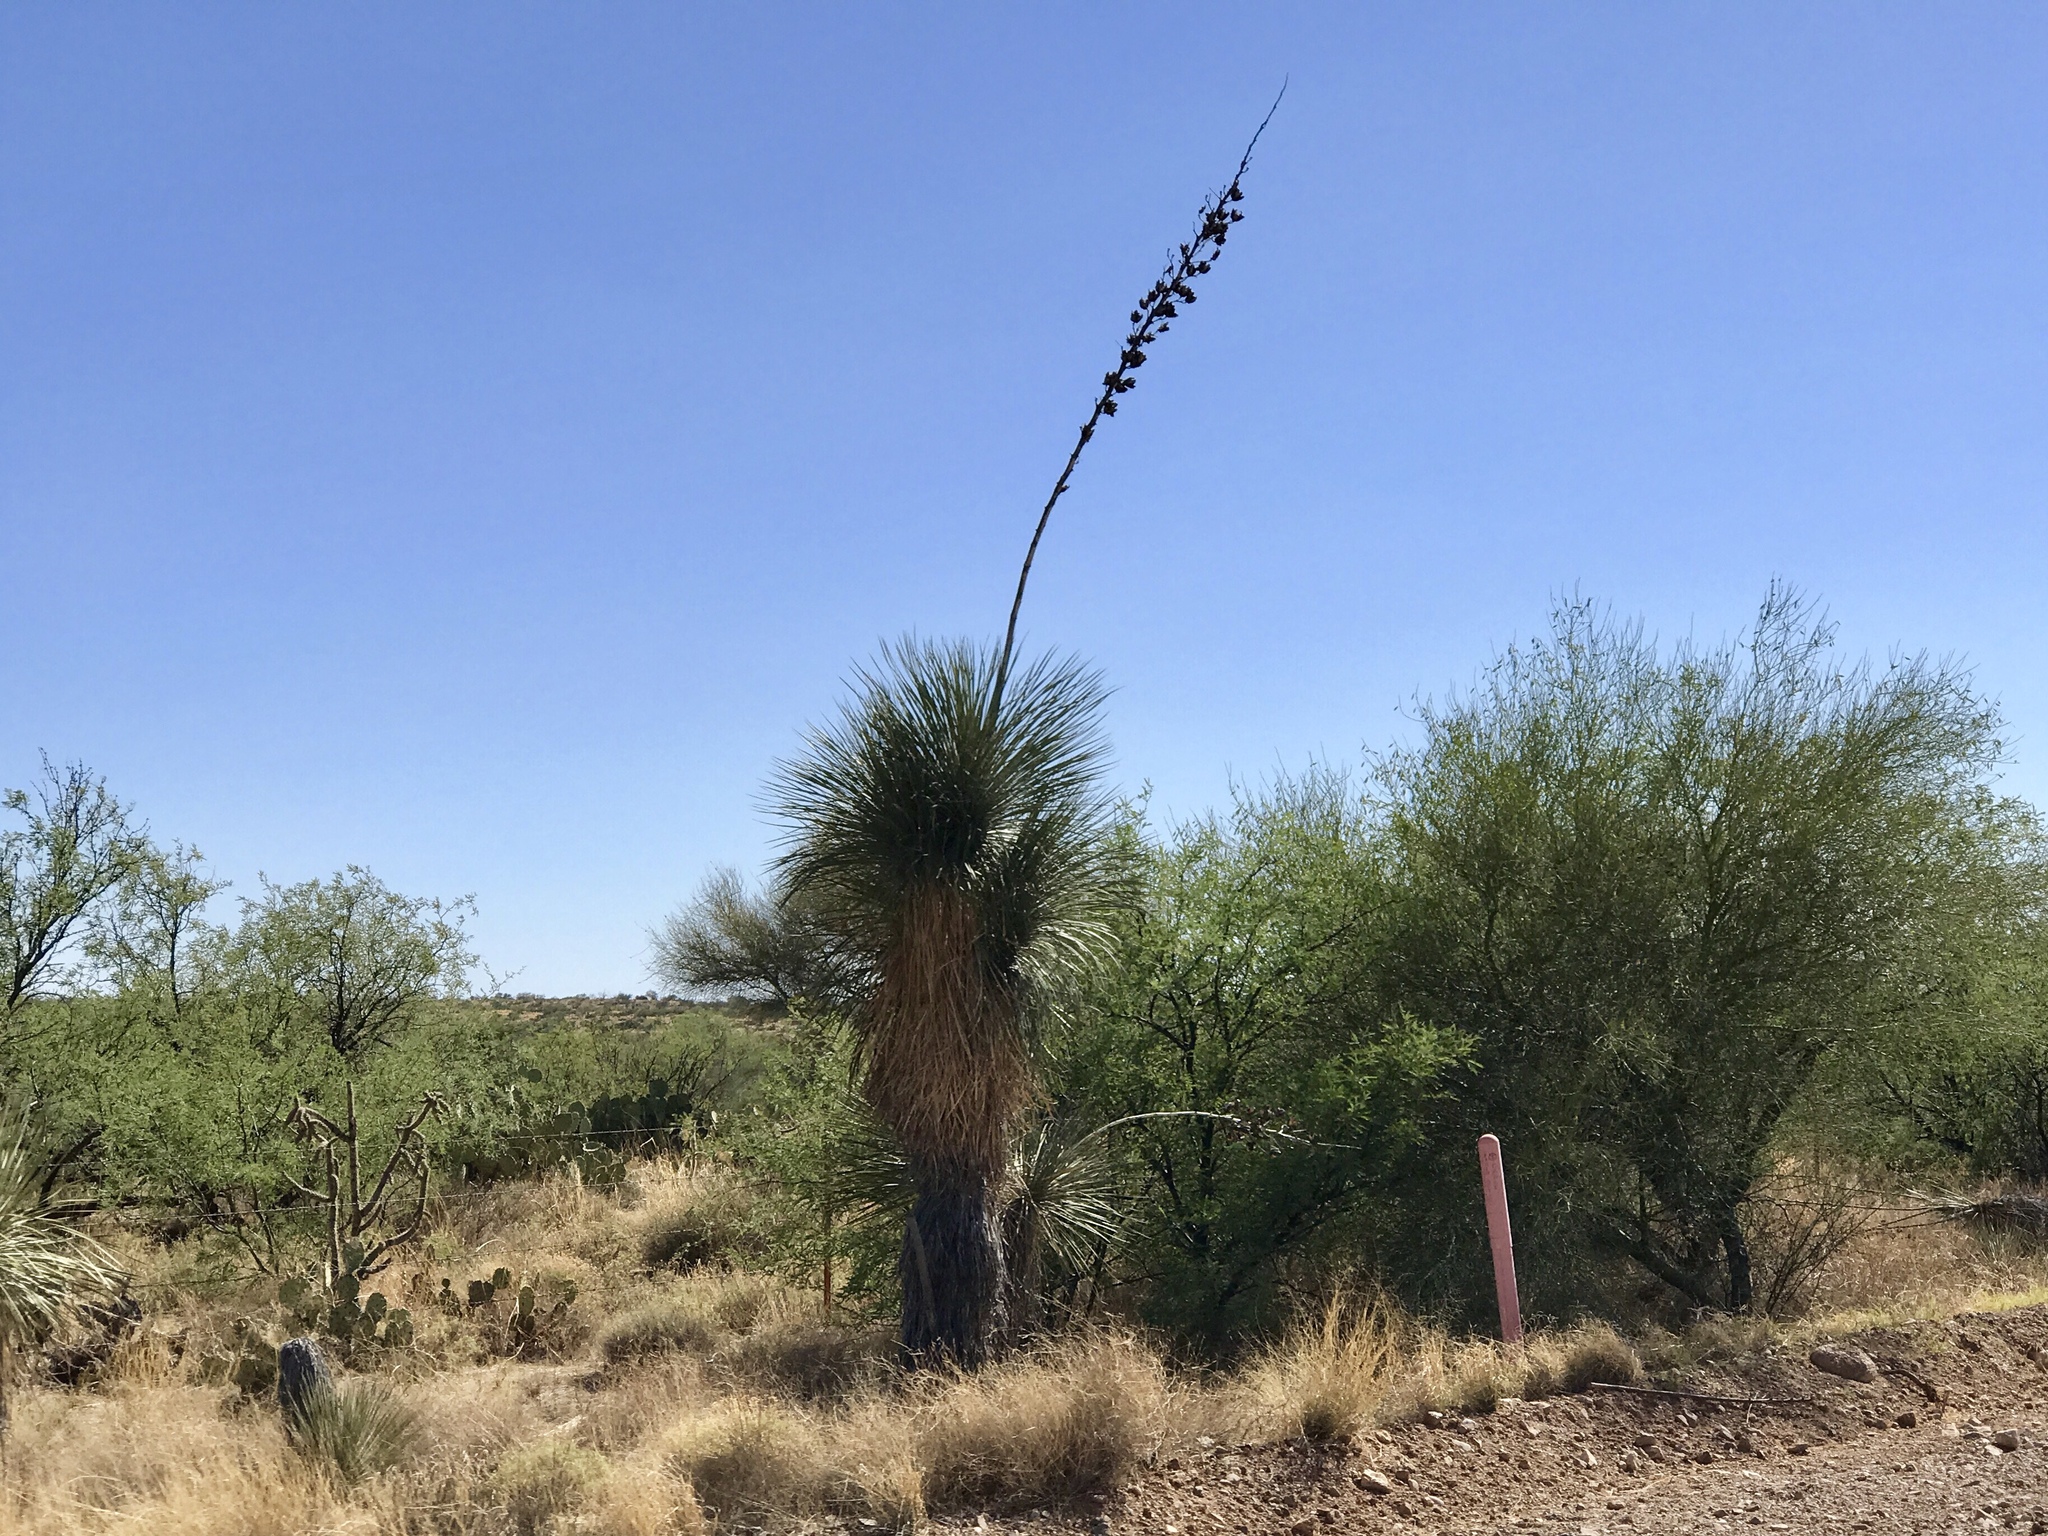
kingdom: Plantae
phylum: Tracheophyta
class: Liliopsida
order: Asparagales
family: Asparagaceae
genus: Yucca
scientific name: Yucca elata
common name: Palmella
